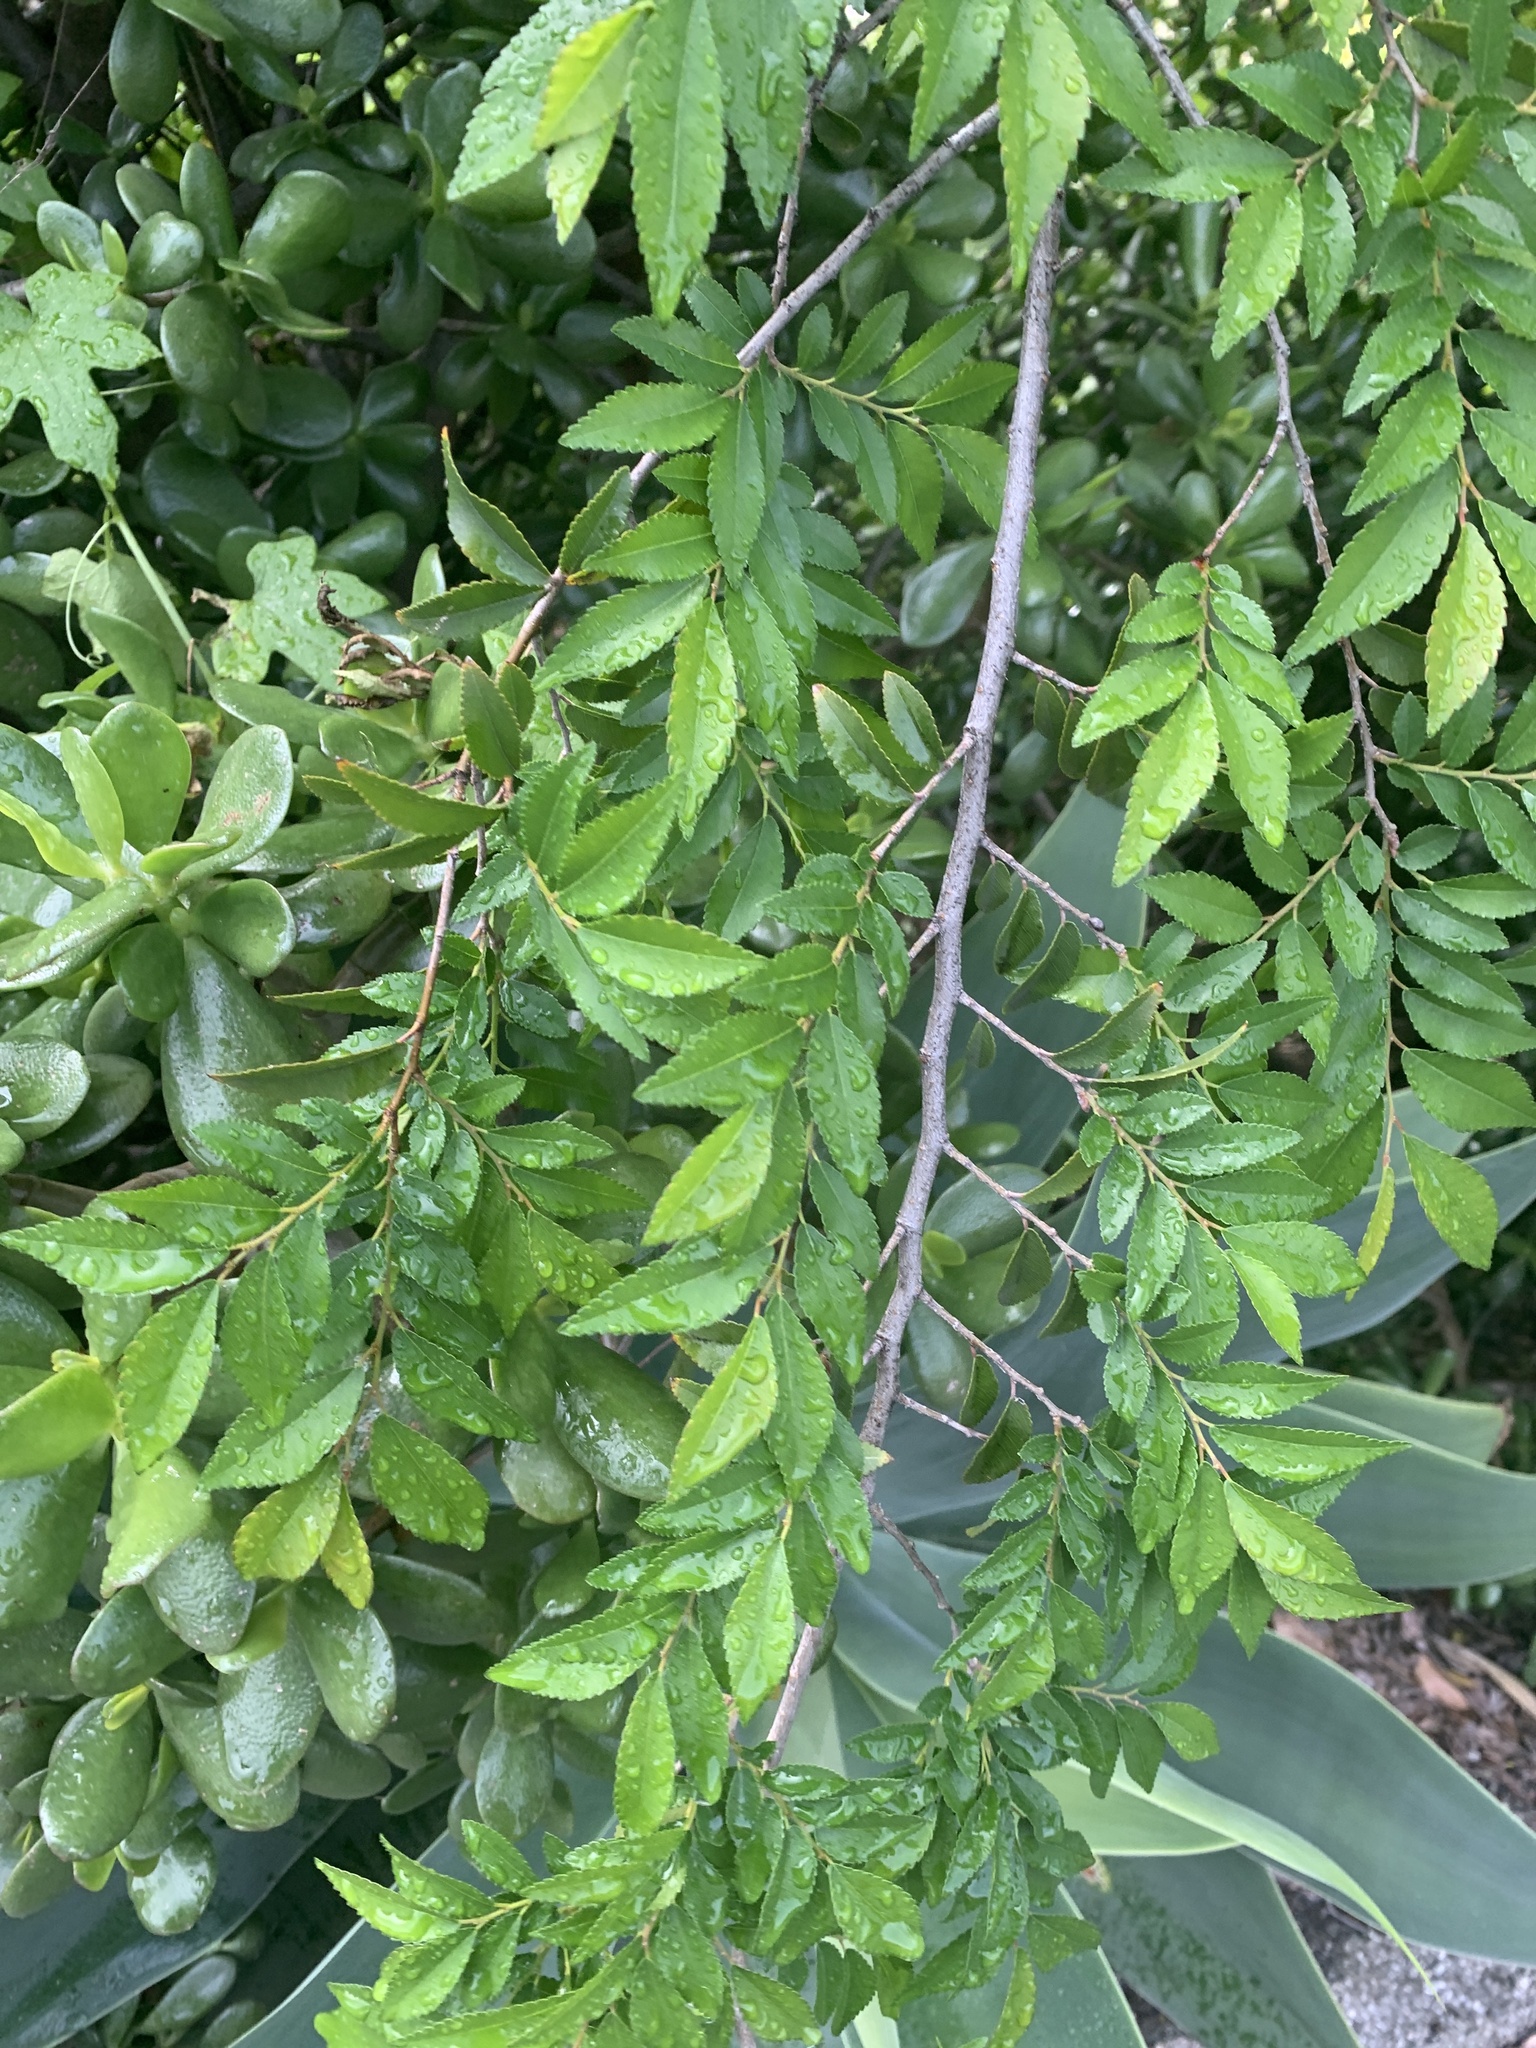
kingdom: Plantae
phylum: Tracheophyta
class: Magnoliopsida
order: Rosales
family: Ulmaceae
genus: Ulmus
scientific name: Ulmus parvifolia
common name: Chinese elm
